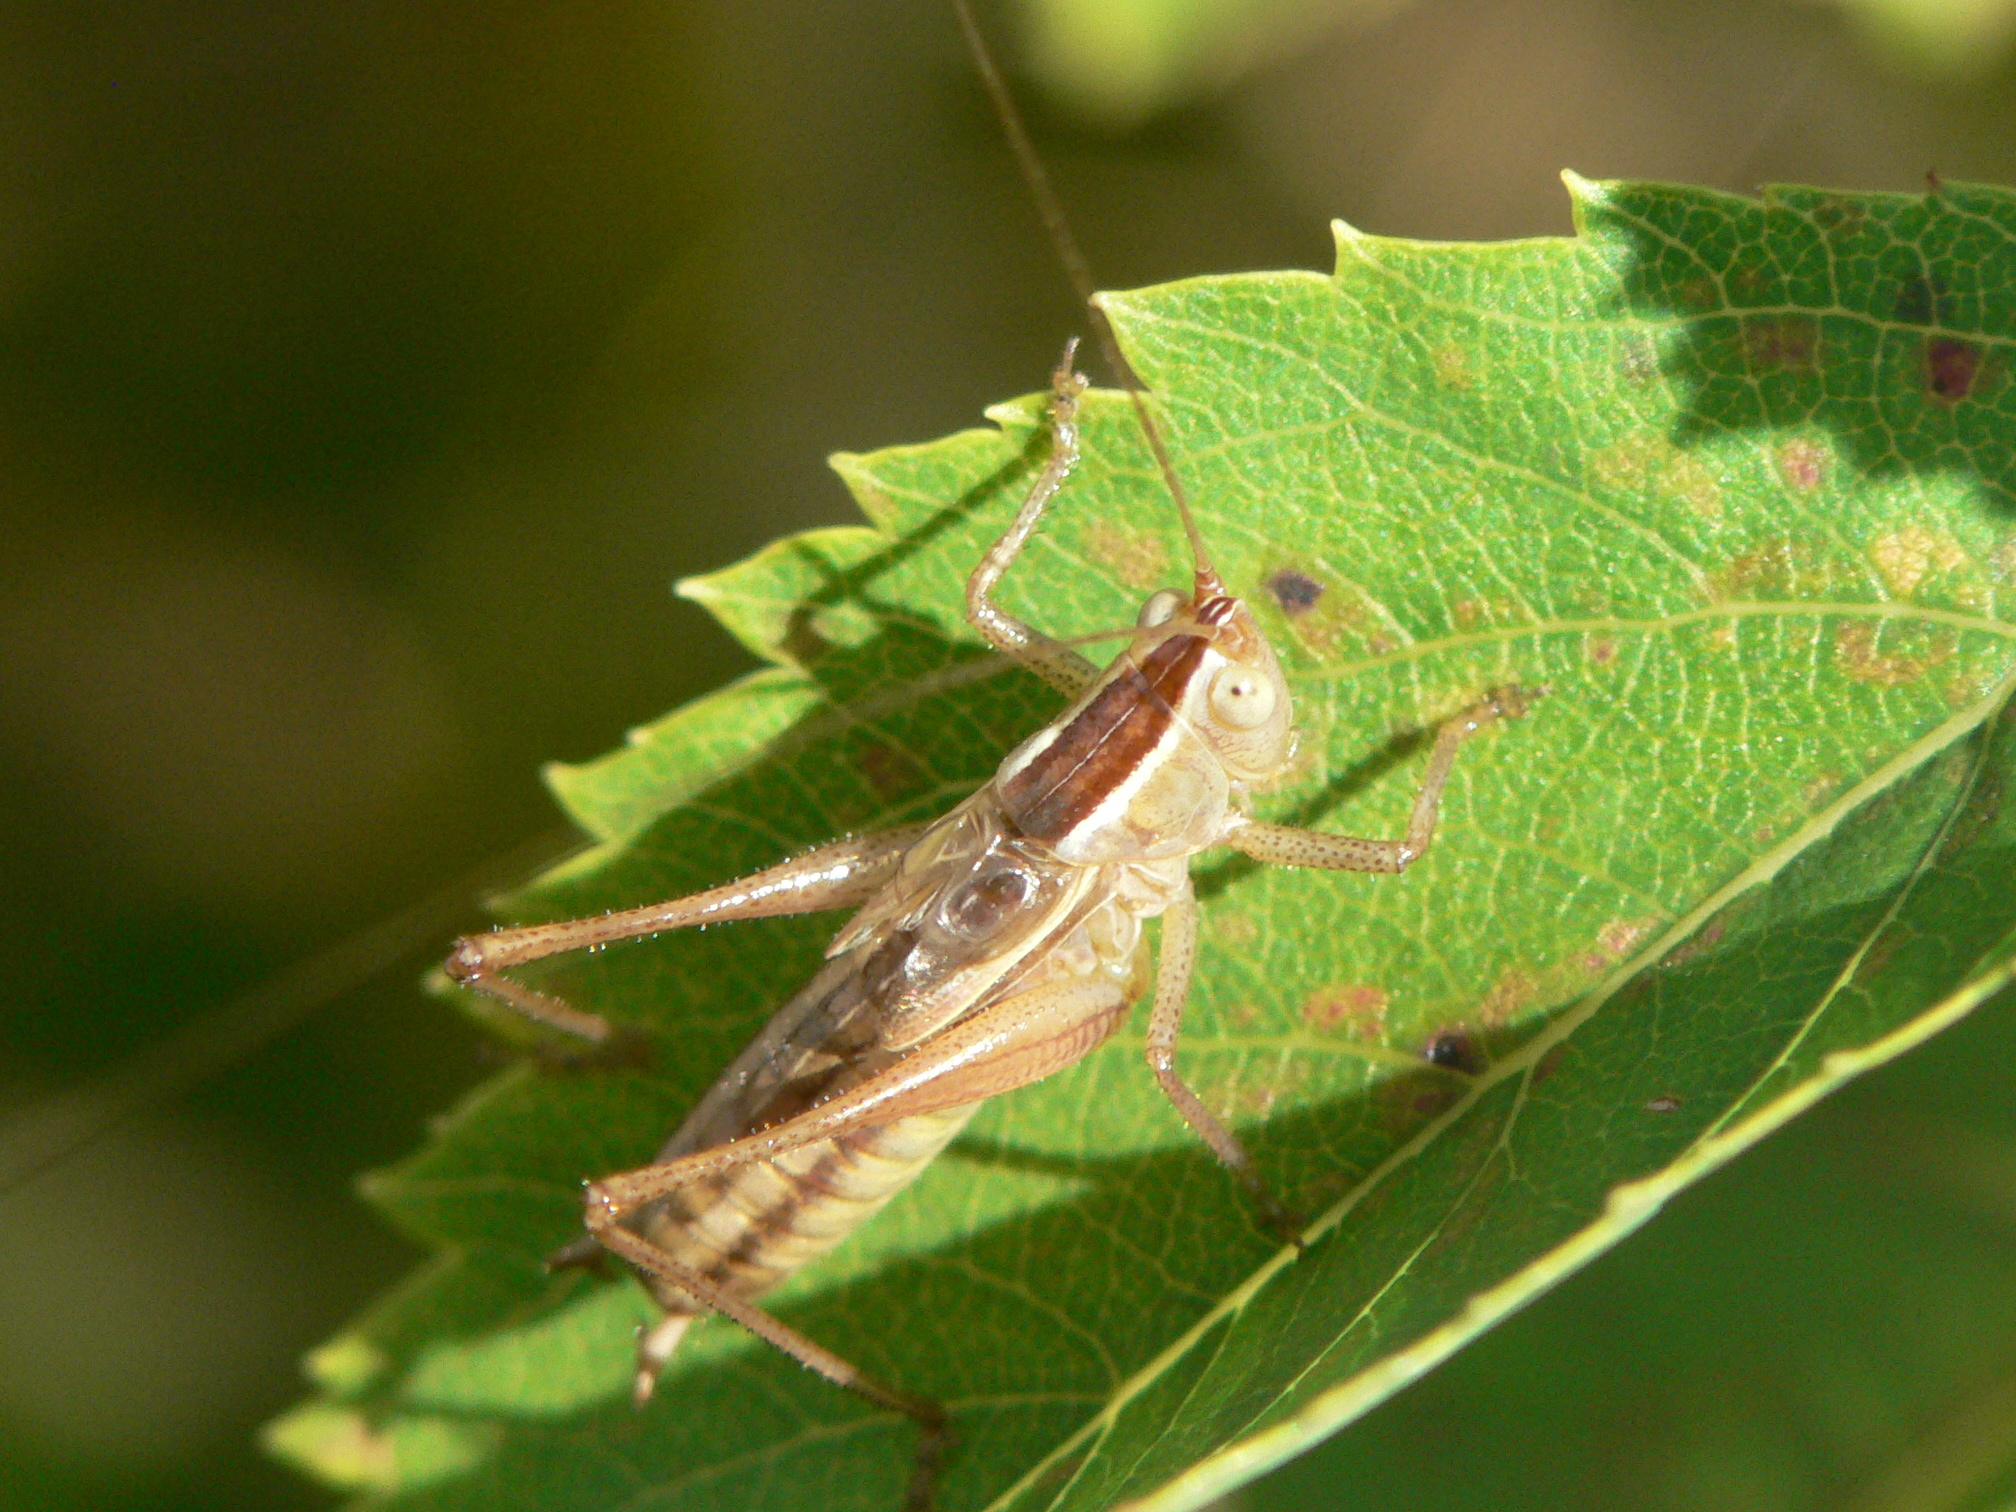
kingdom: Animalia
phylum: Arthropoda
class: Insecta
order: Orthoptera
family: Tettigoniidae
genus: Conocephalus
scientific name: Conocephalus saltans
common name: Prairie meadow katydid
